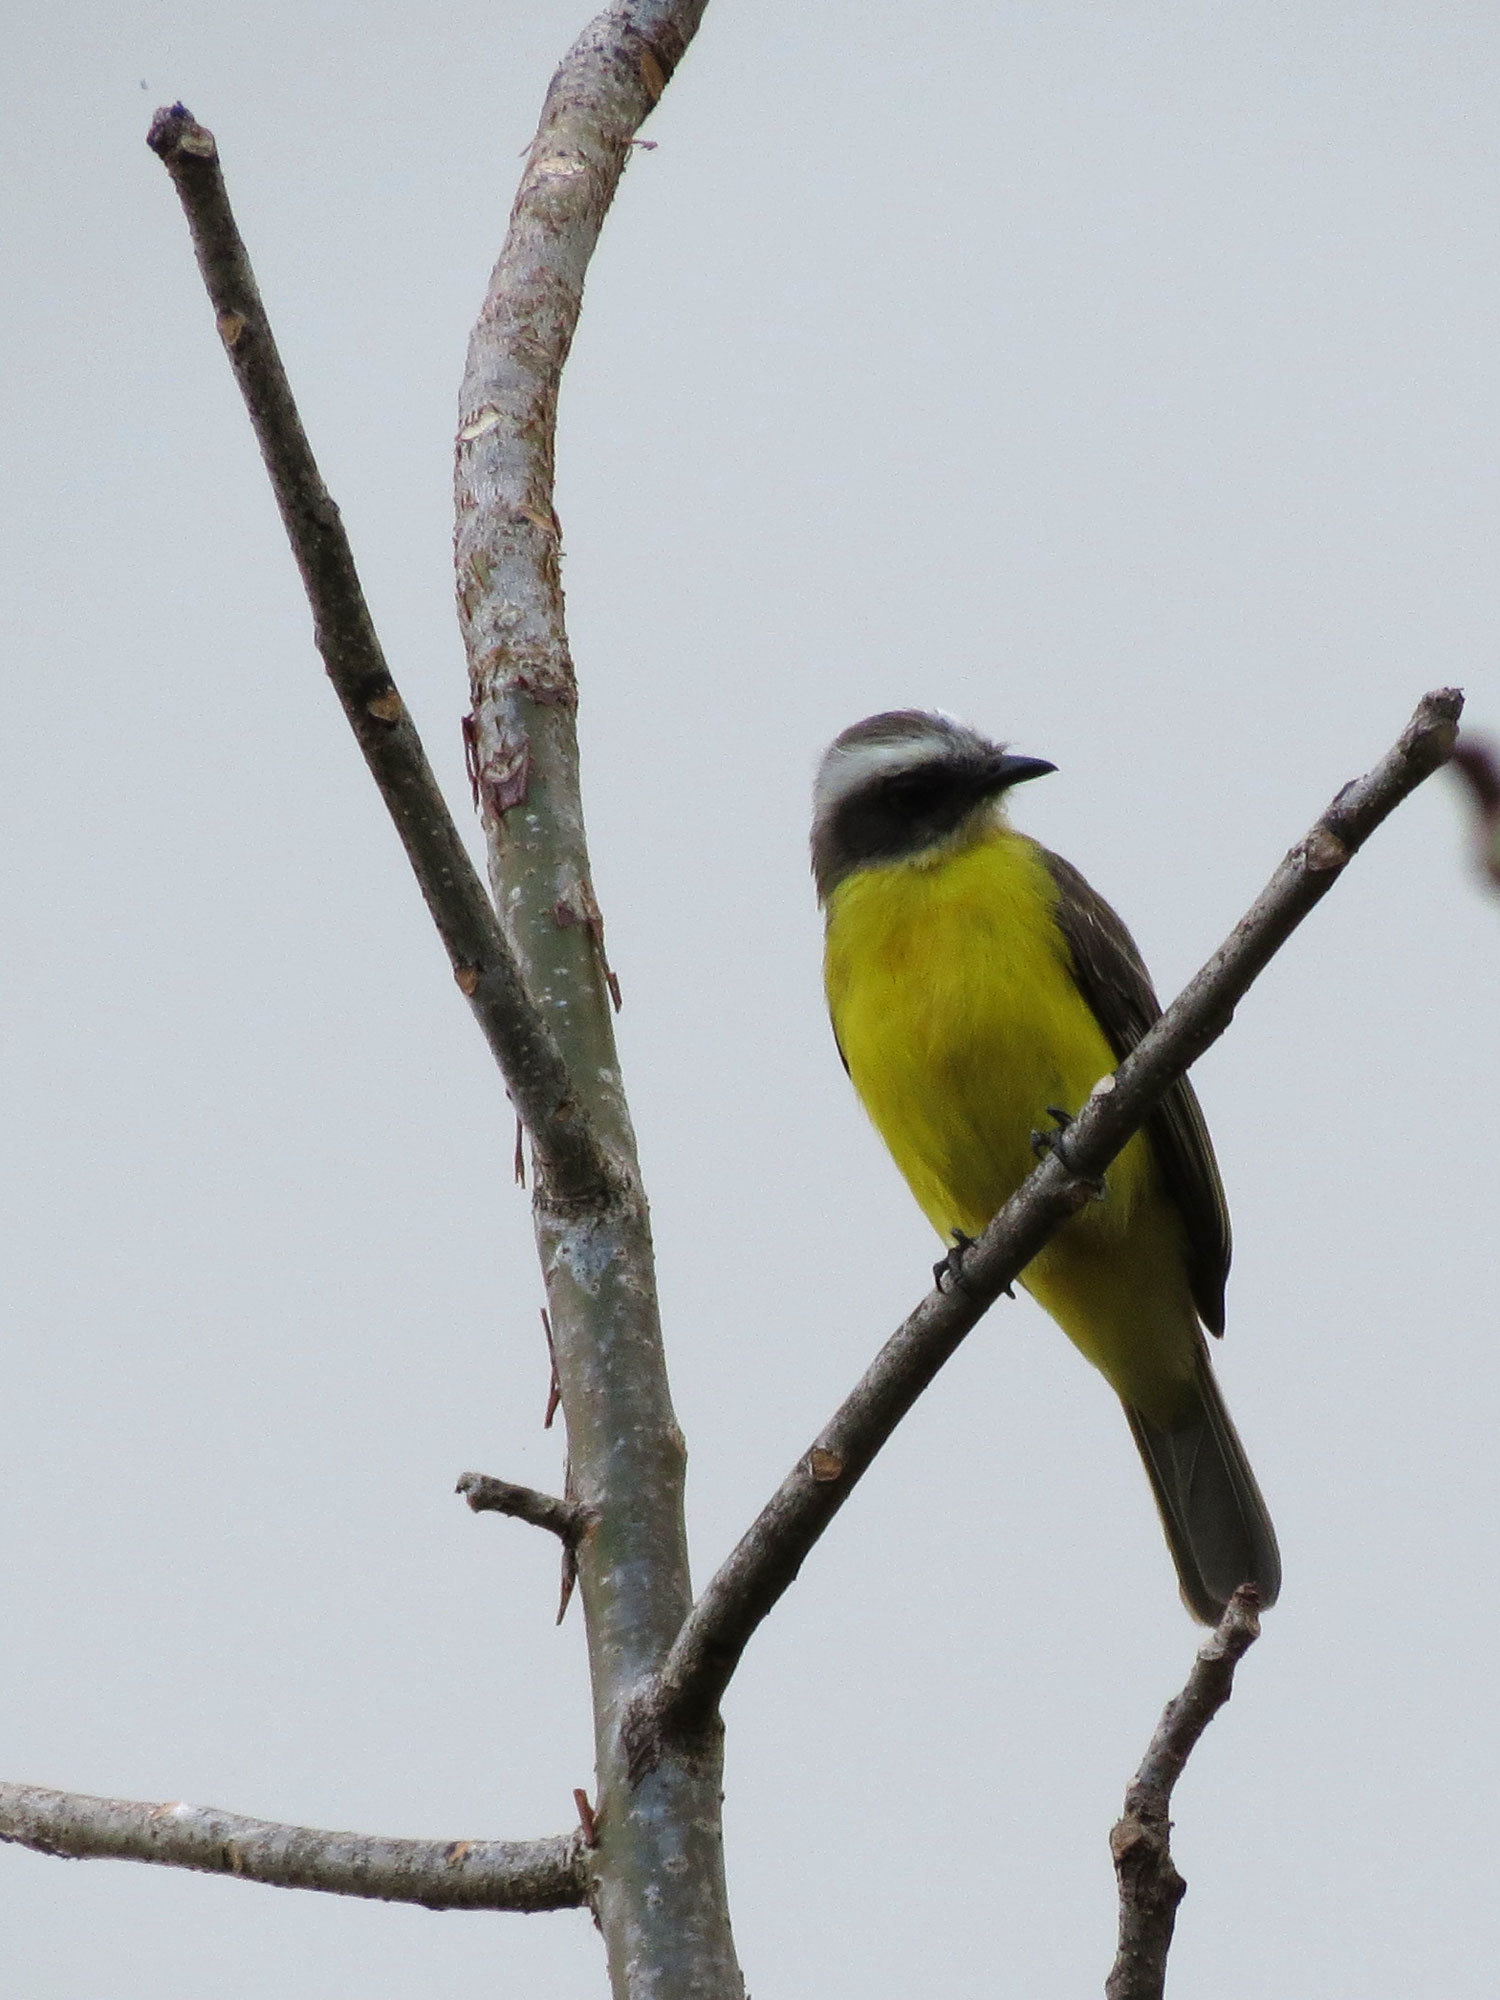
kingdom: Animalia
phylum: Chordata
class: Aves
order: Passeriformes
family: Tyrannidae
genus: Myiozetetes
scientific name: Myiozetetes similis
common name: Social flycatcher
